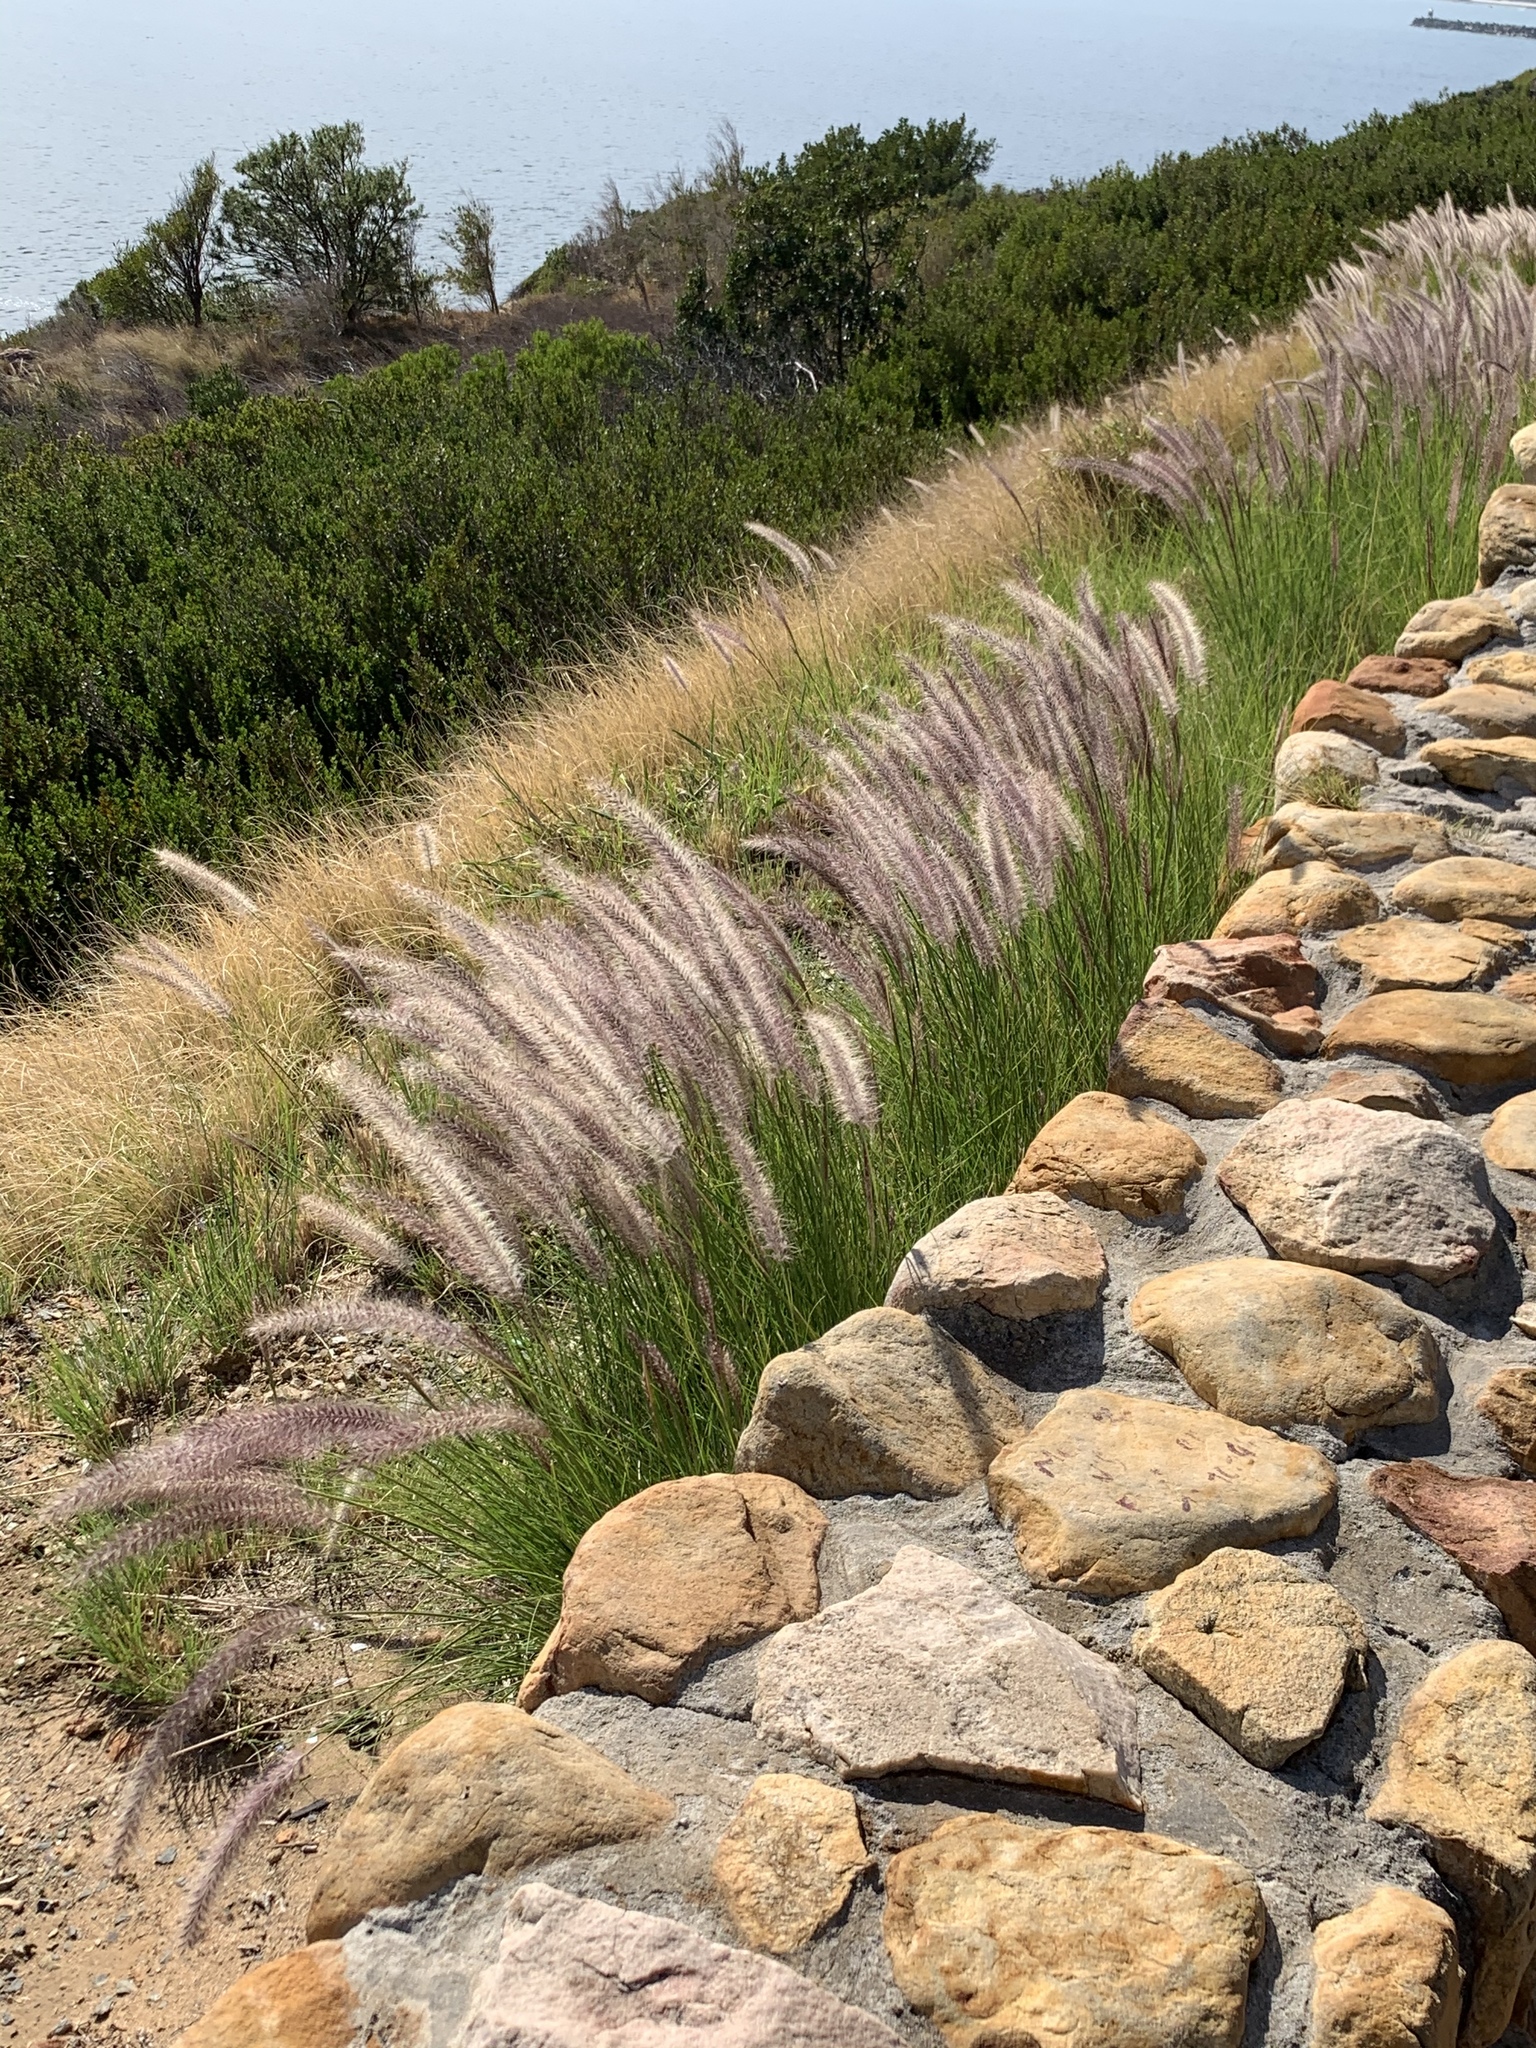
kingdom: Plantae
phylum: Tracheophyta
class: Liliopsida
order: Poales
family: Poaceae
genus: Cenchrus
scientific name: Cenchrus setaceus
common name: Crimson fountaingrass
